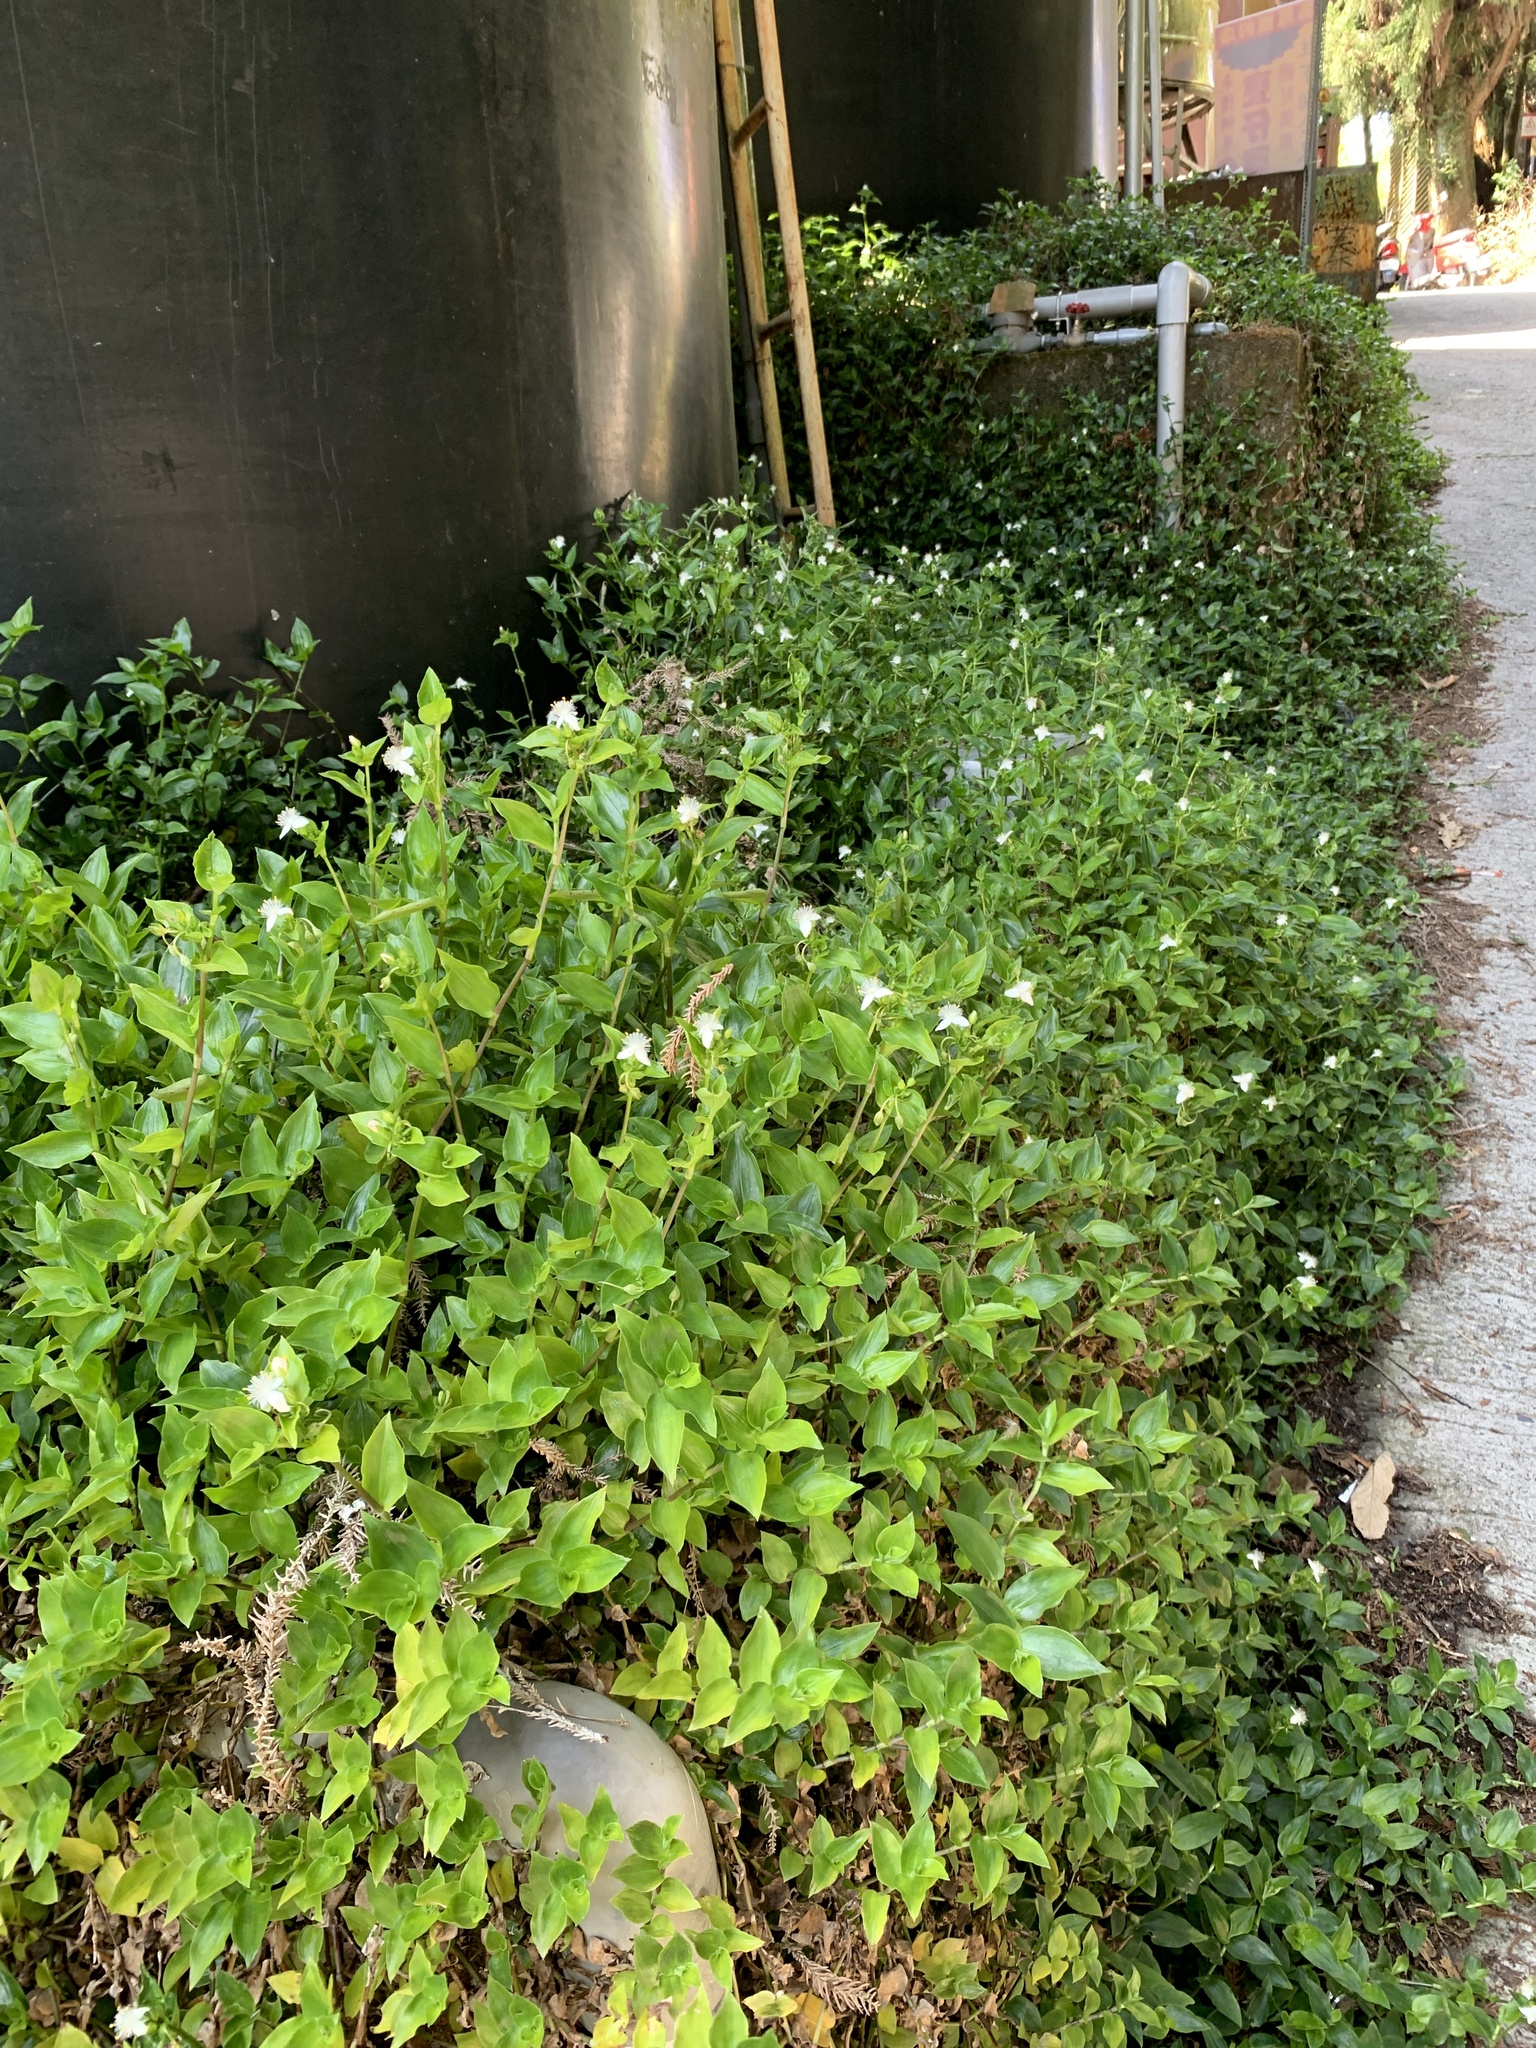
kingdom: Plantae
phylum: Tracheophyta
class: Liliopsida
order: Commelinales
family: Commelinaceae
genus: Tradescantia
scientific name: Tradescantia fluminensis
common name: Wandering-jew
